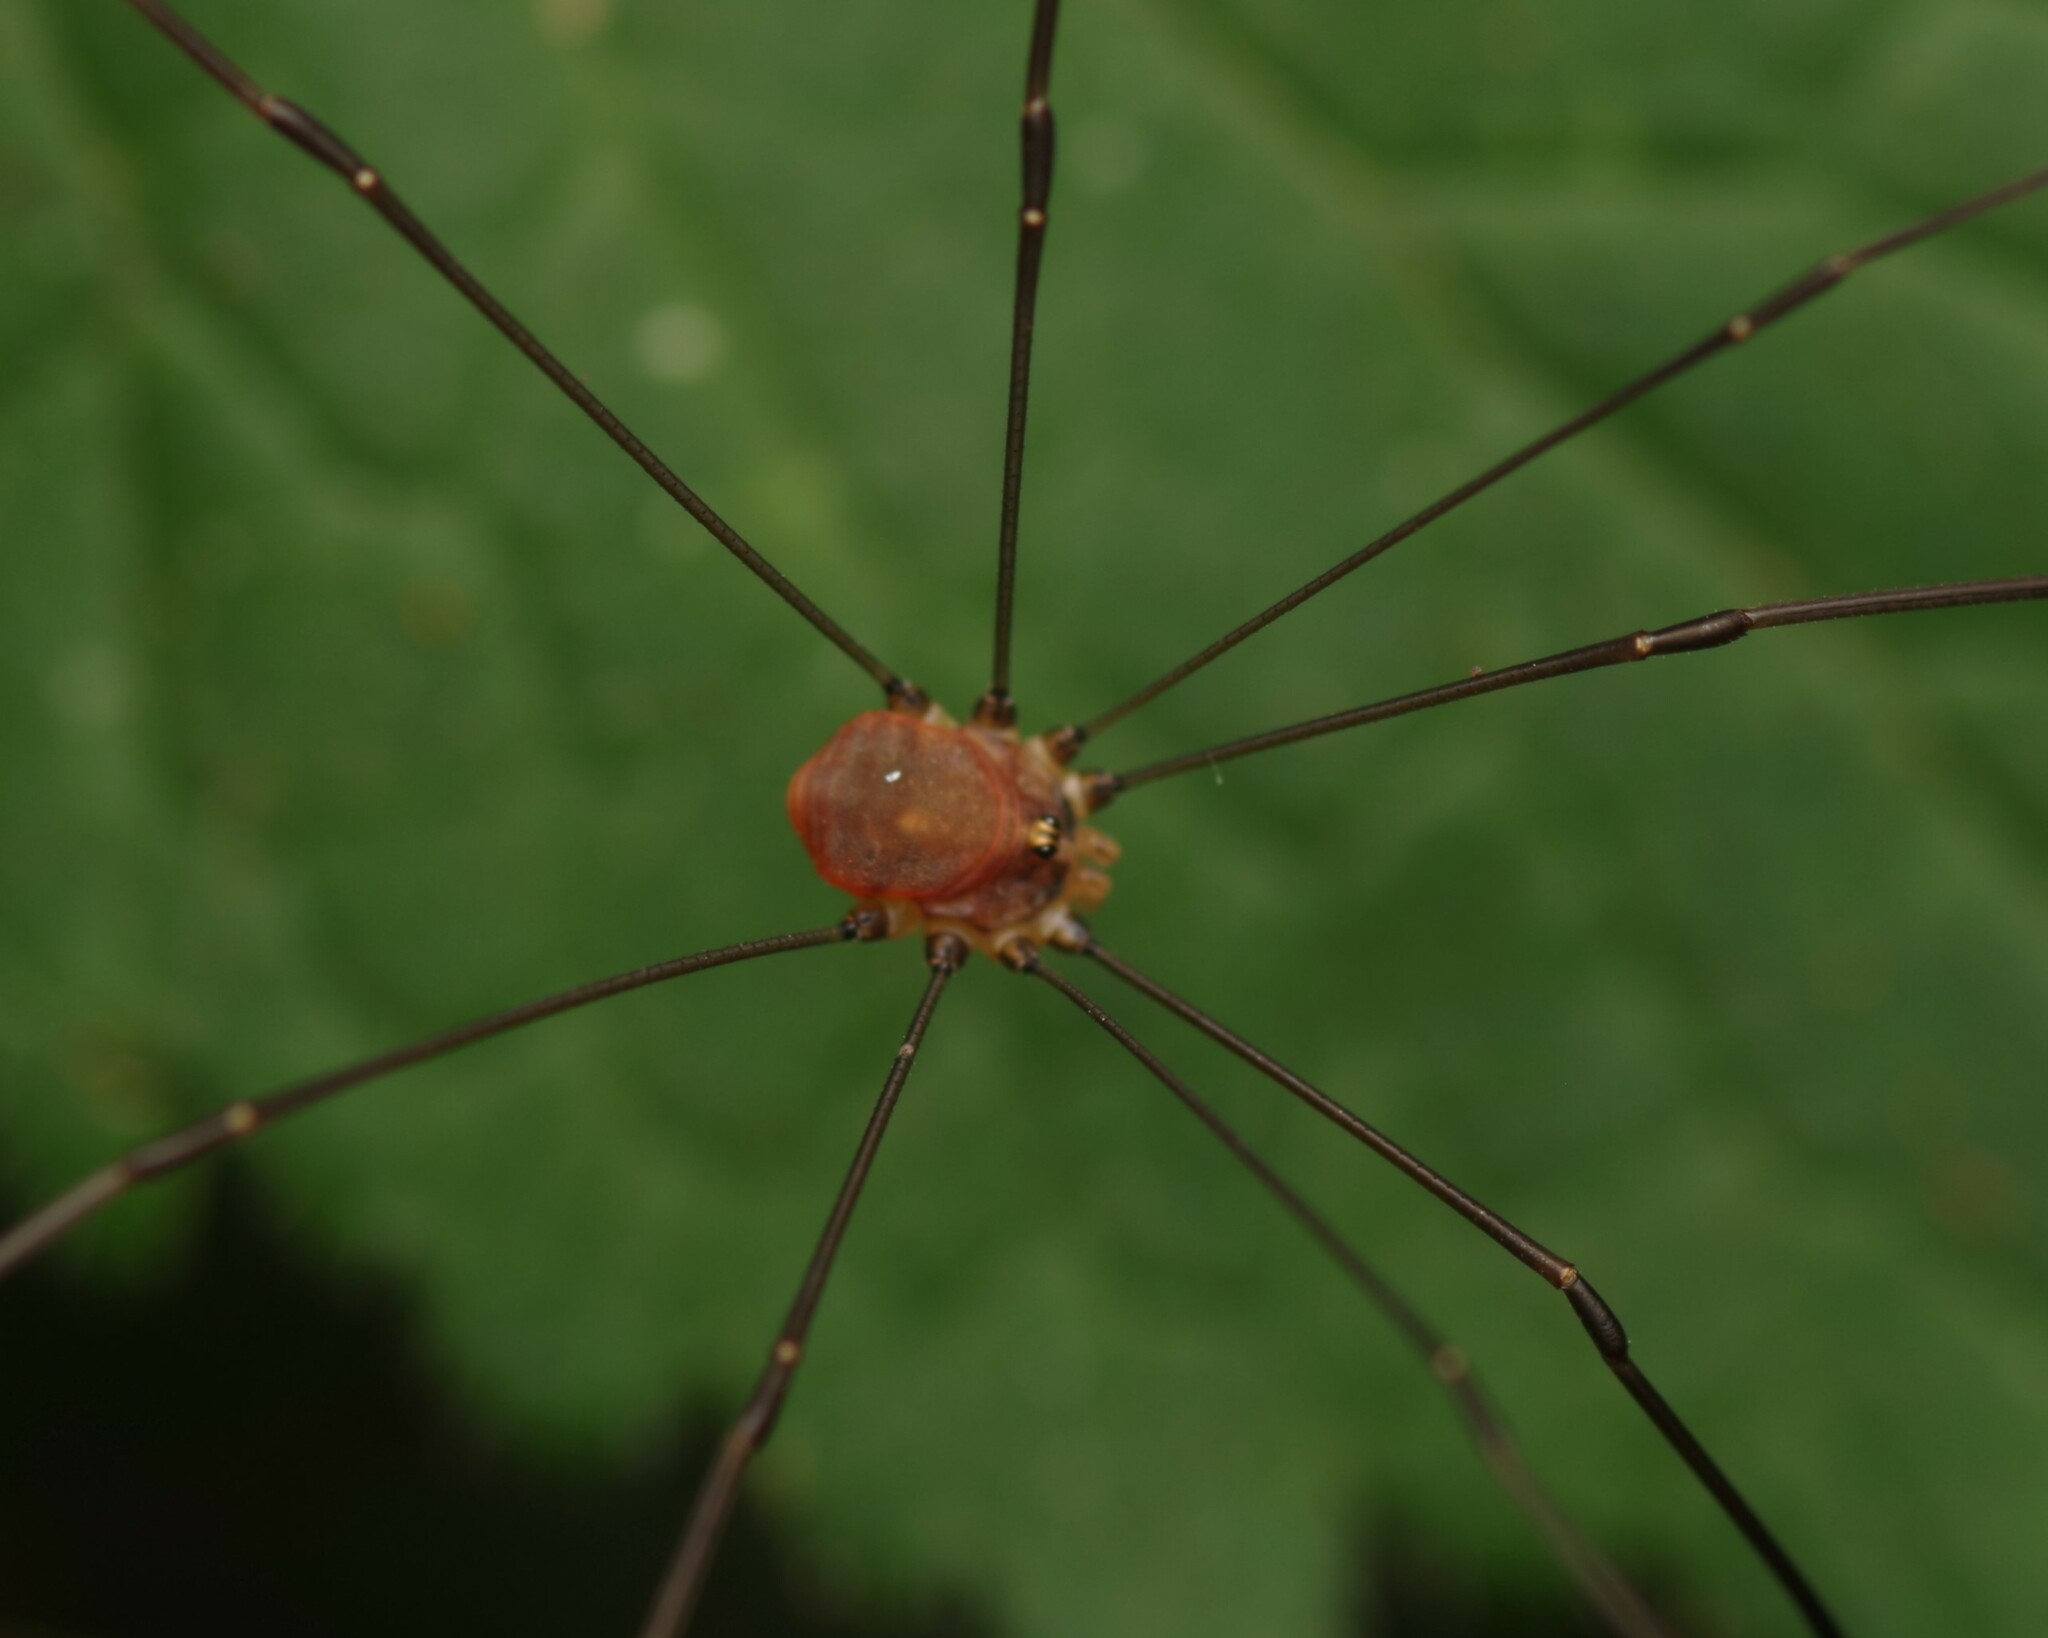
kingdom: Animalia
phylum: Arthropoda
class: Arachnida
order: Opiliones
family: Sclerosomatidae
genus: Leiobunum
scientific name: Leiobunum blackwalli
